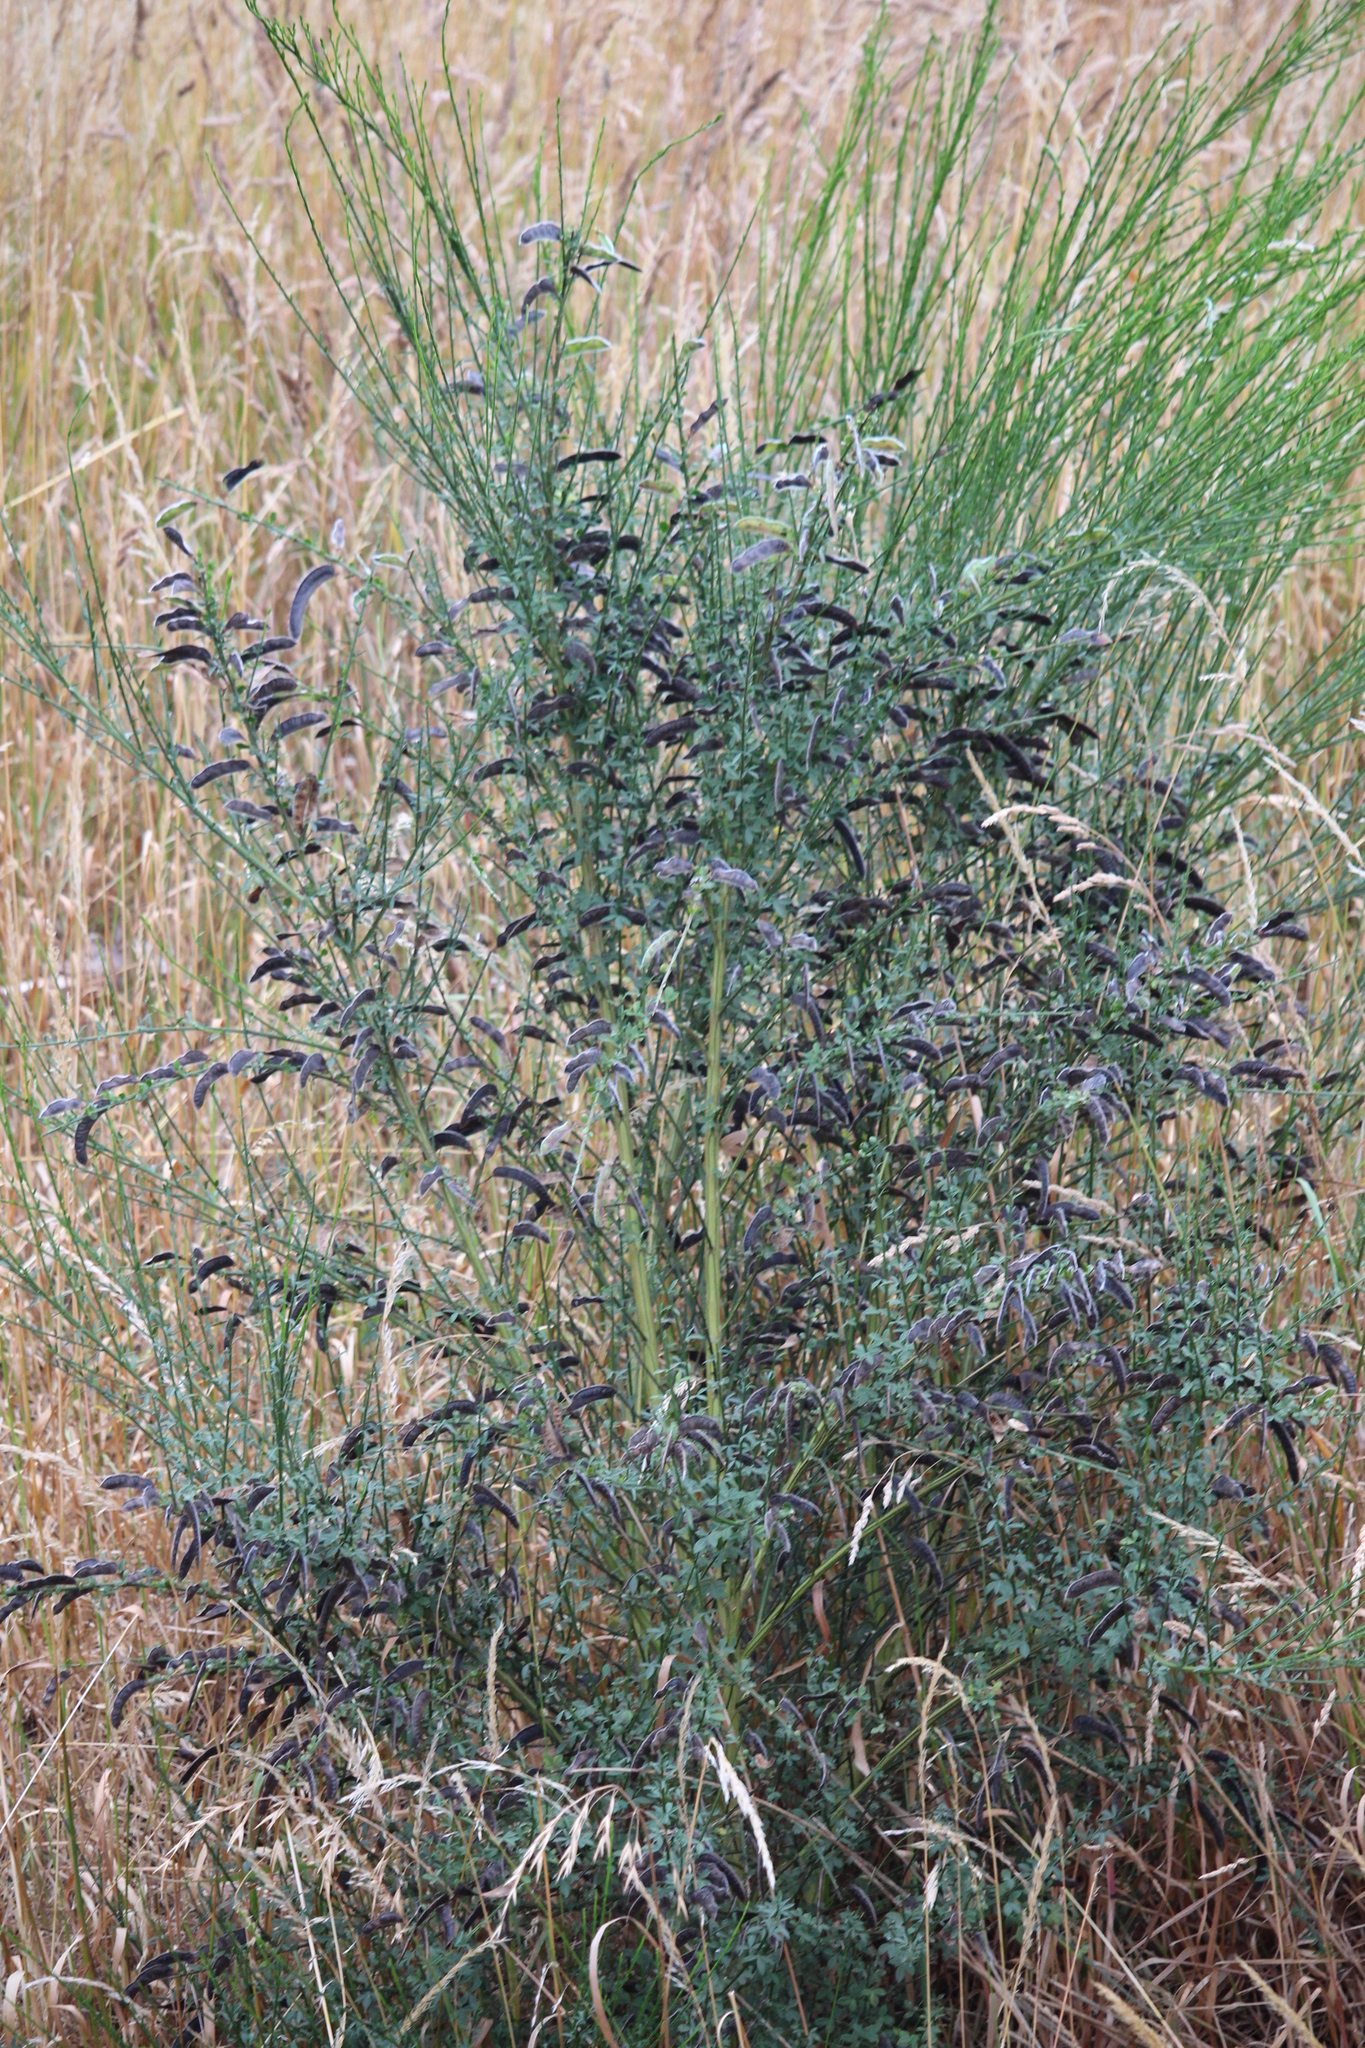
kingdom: Plantae
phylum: Tracheophyta
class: Magnoliopsida
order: Fabales
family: Fabaceae
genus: Cytisus
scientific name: Cytisus scoparius
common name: Scotch broom
